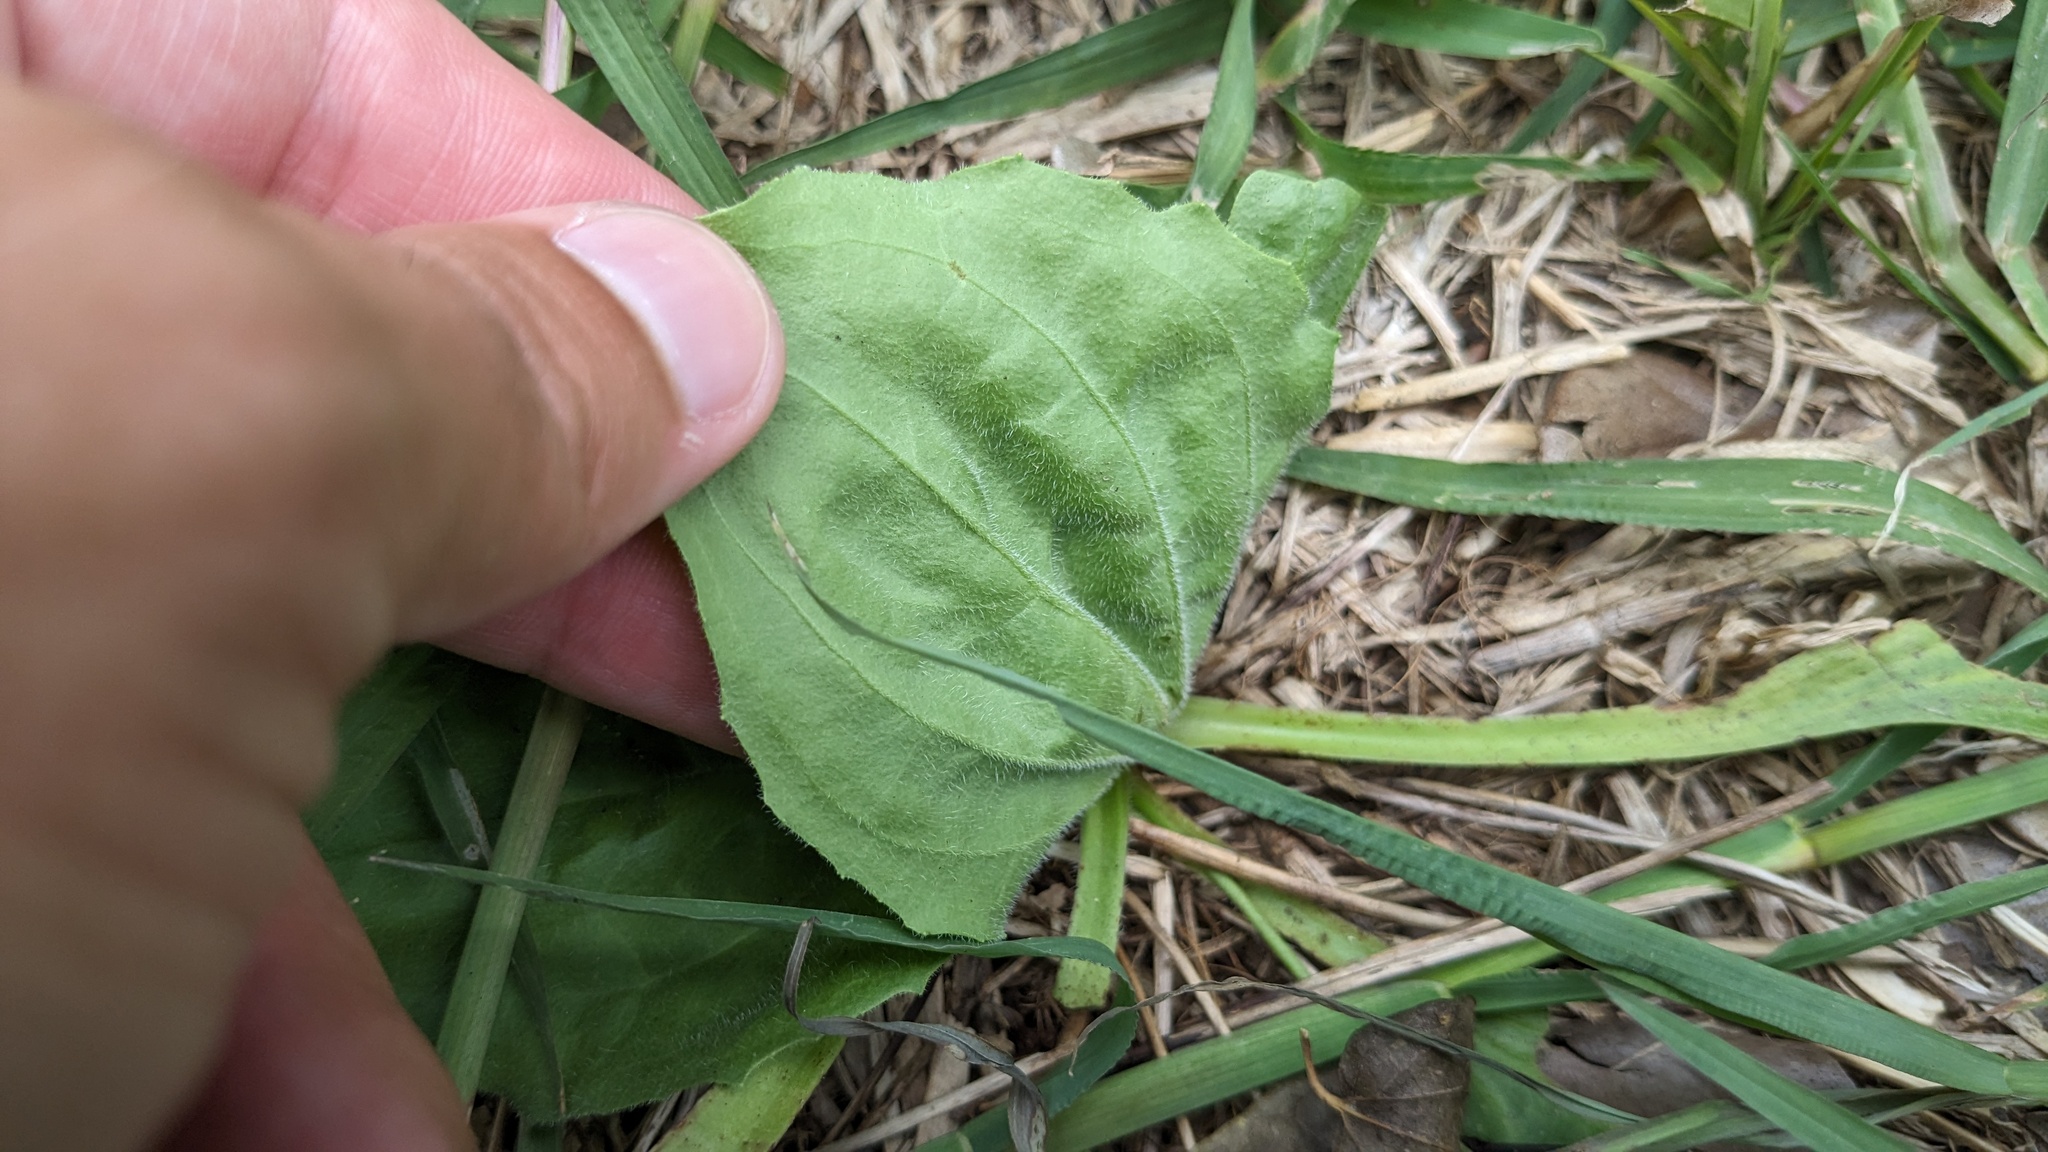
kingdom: Plantae
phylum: Tracheophyta
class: Magnoliopsida
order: Lamiales
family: Plantaginaceae
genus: Plantago
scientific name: Plantago major
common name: Common plantain
